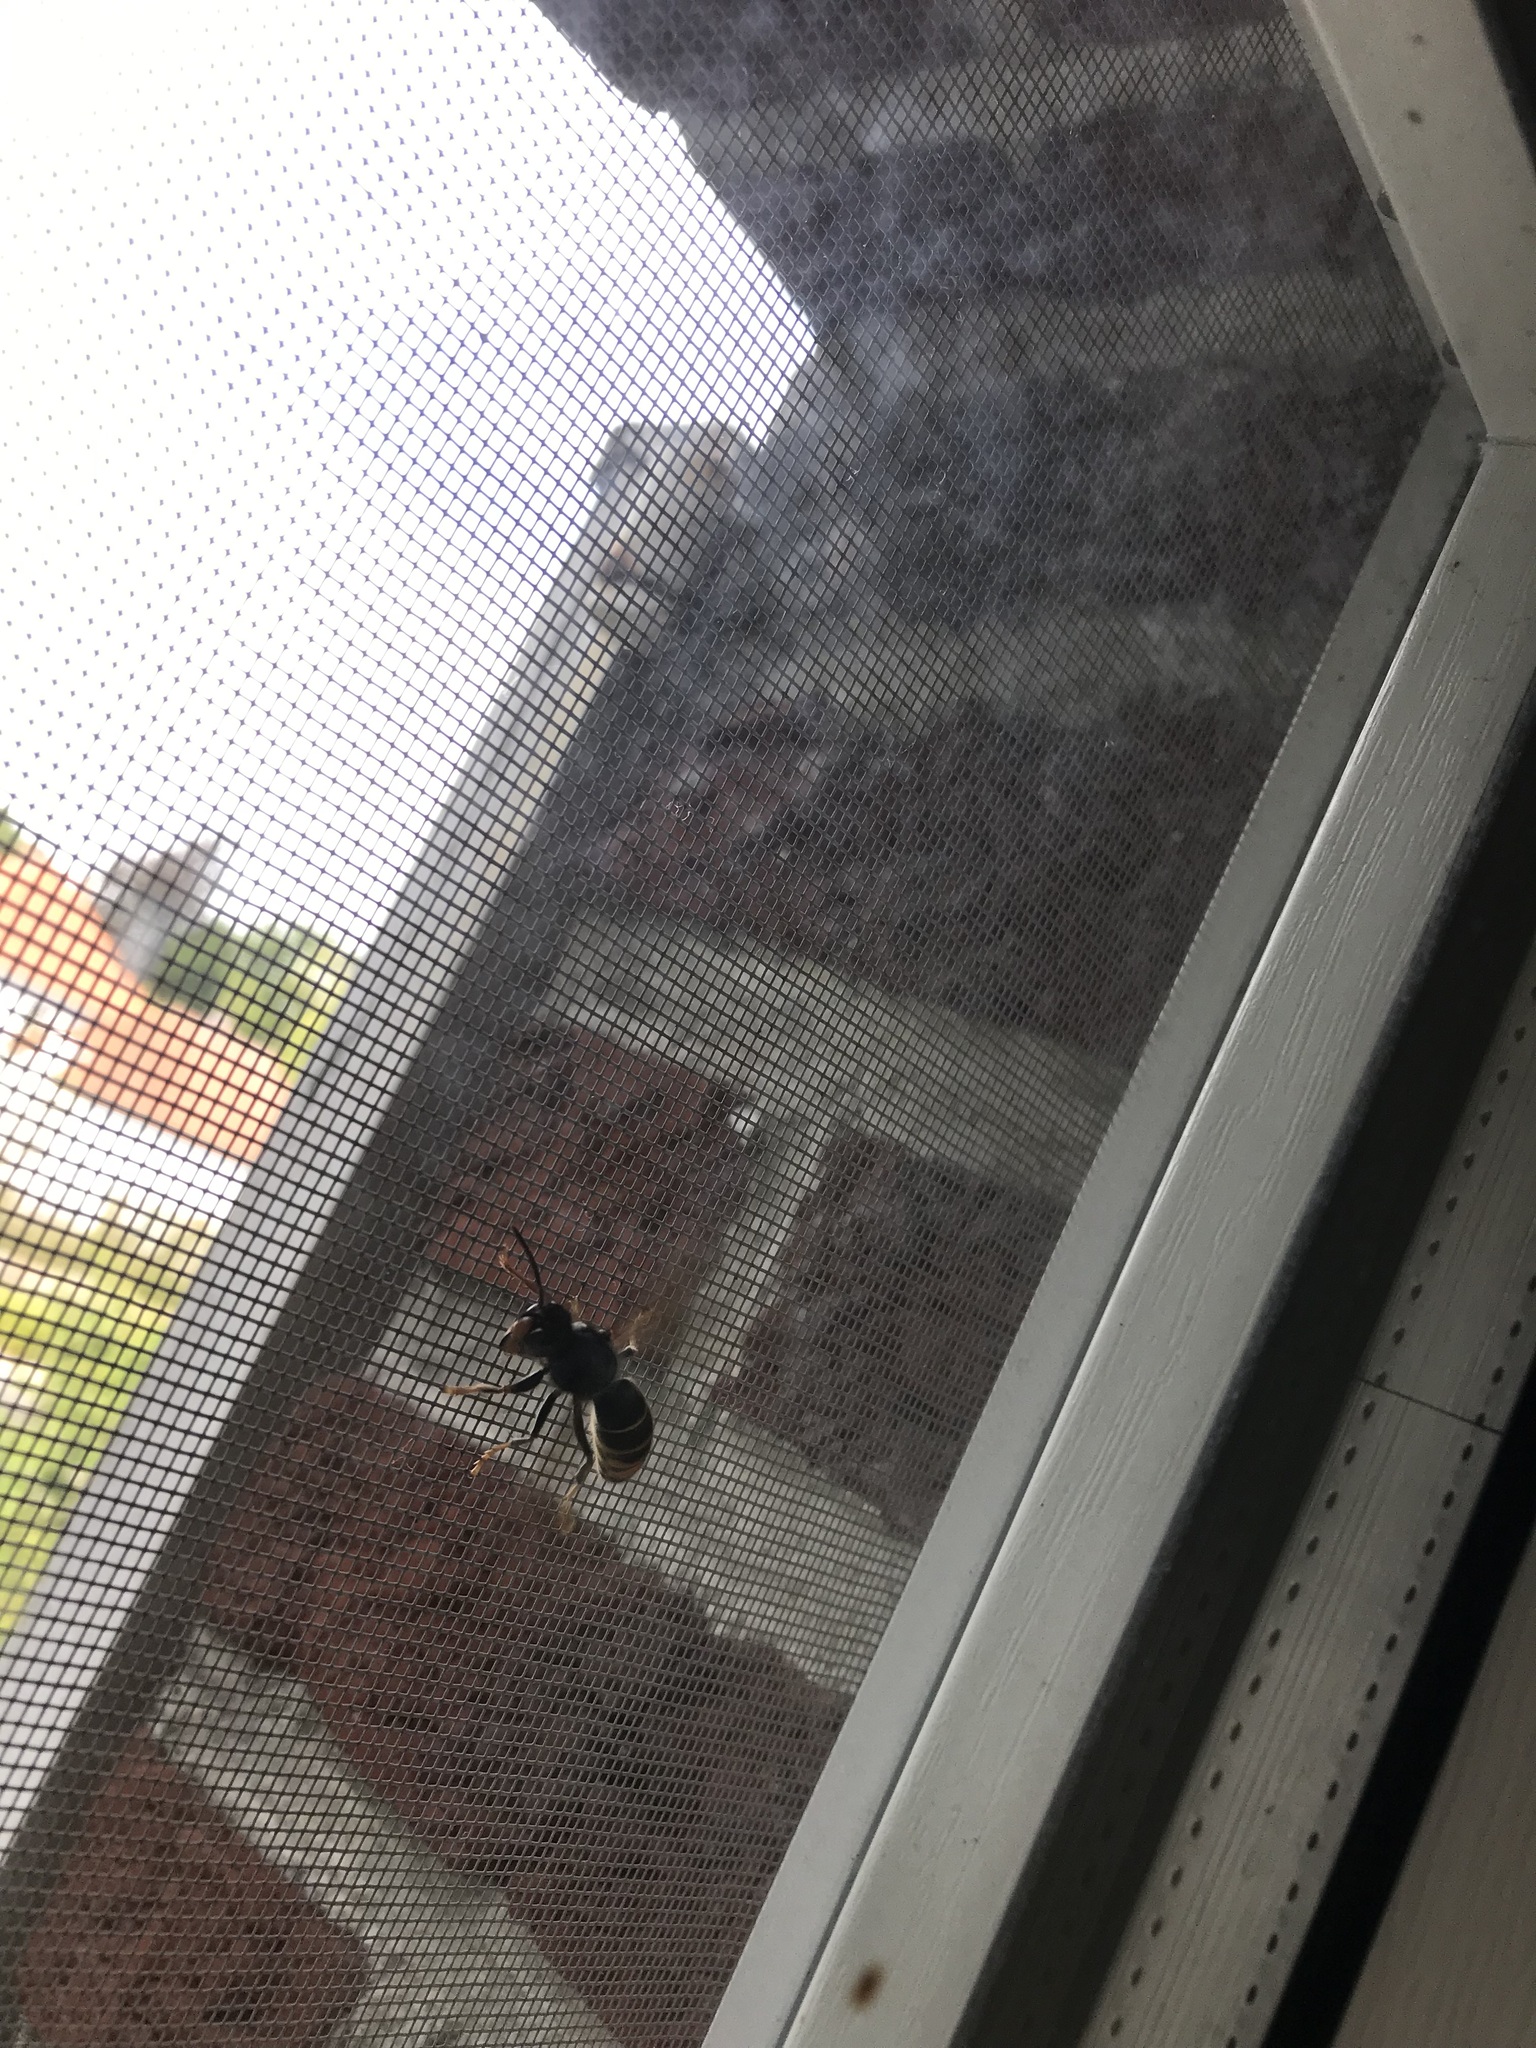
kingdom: Animalia
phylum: Arthropoda
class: Insecta
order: Hymenoptera
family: Vespidae
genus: Vespa
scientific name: Vespa velutina
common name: Asian hornet
